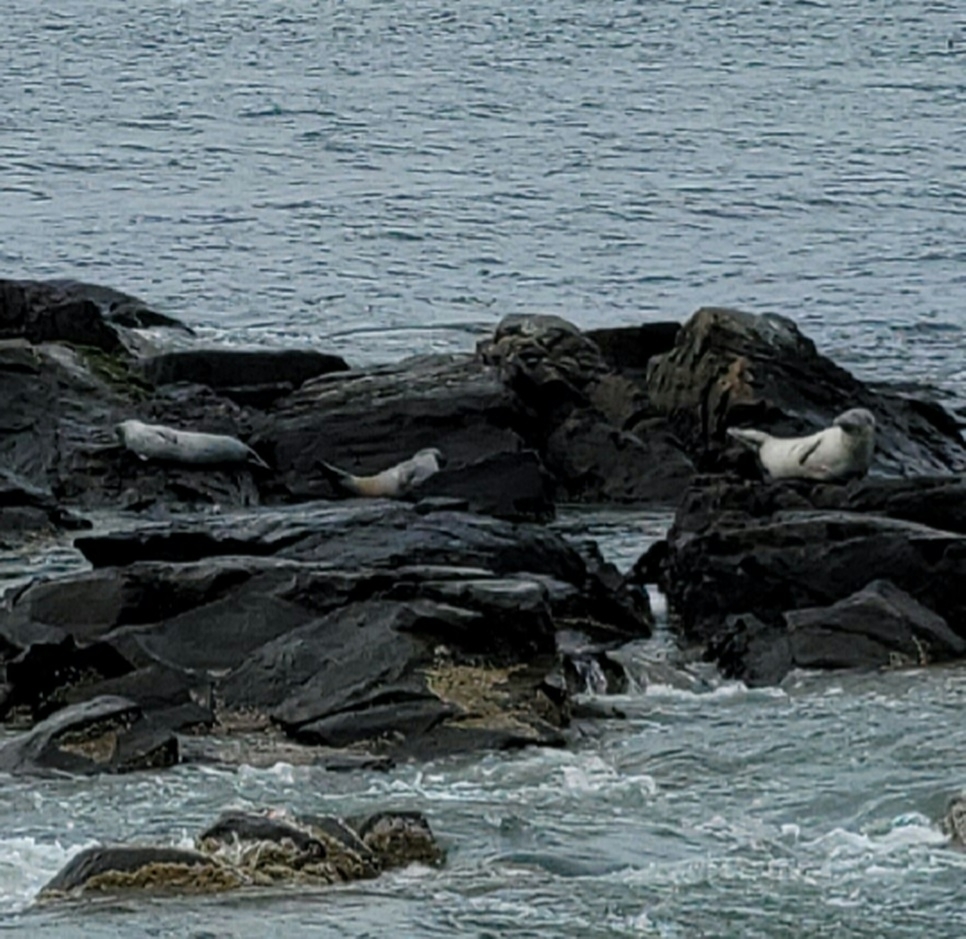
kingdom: Animalia
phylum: Chordata
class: Mammalia
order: Carnivora
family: Phocidae
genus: Phoca
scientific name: Phoca vitulina
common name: Harbor seal
